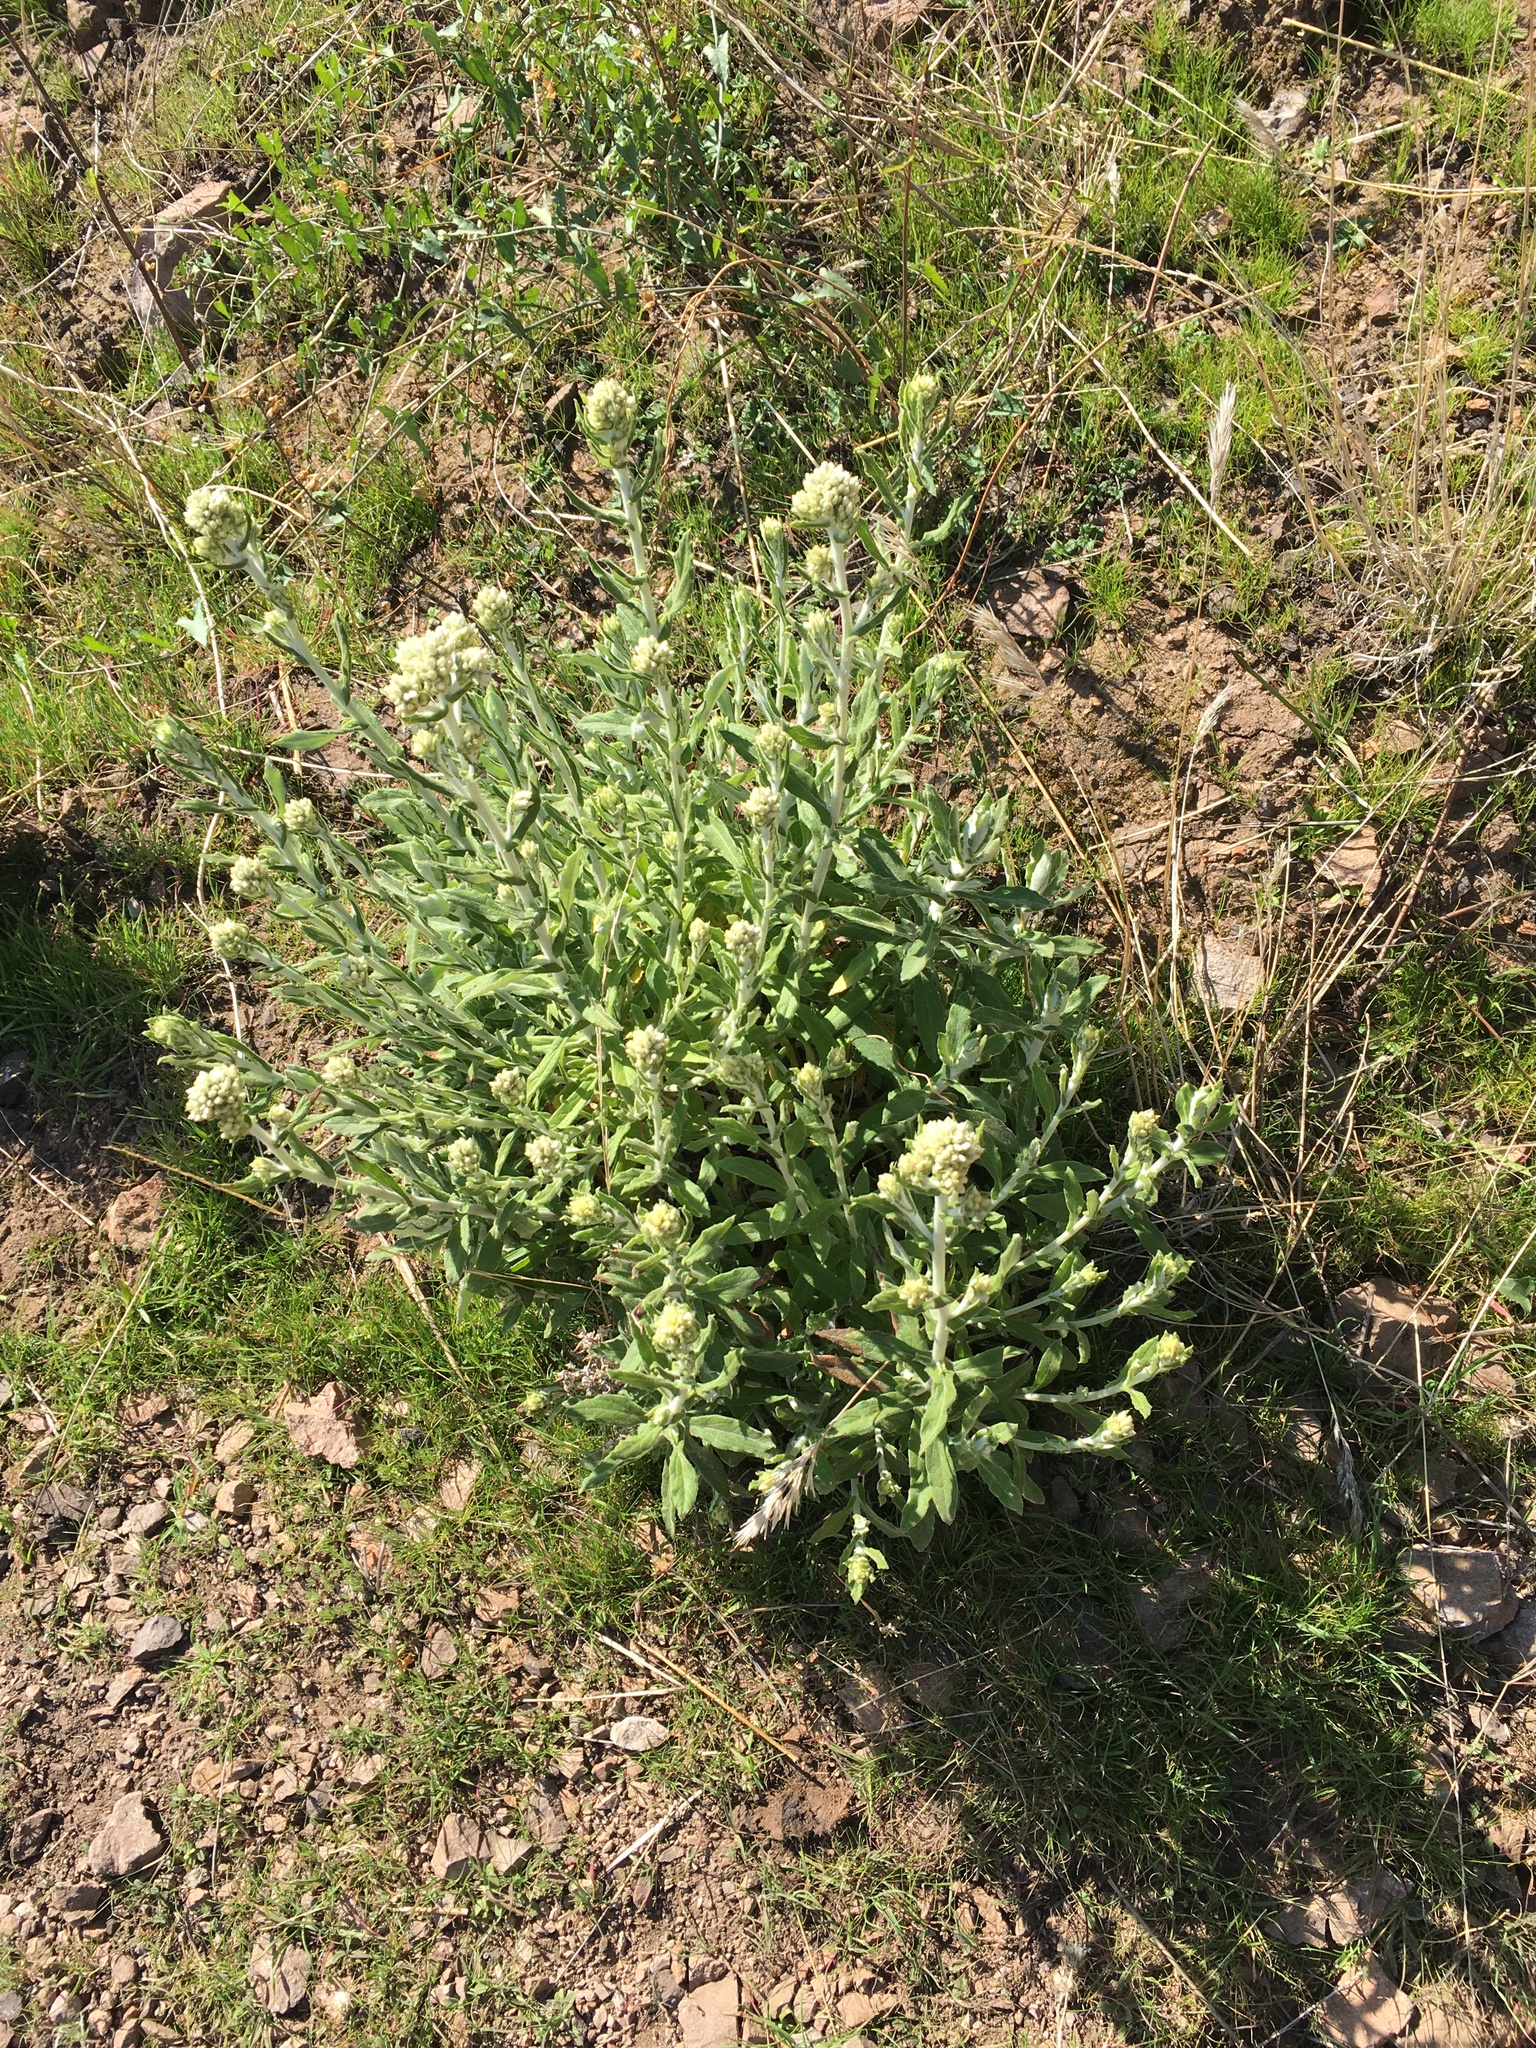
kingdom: Plantae
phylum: Tracheophyta
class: Magnoliopsida
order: Asterales
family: Asteraceae
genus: Pseudognaphalium
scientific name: Pseudognaphalium biolettii
